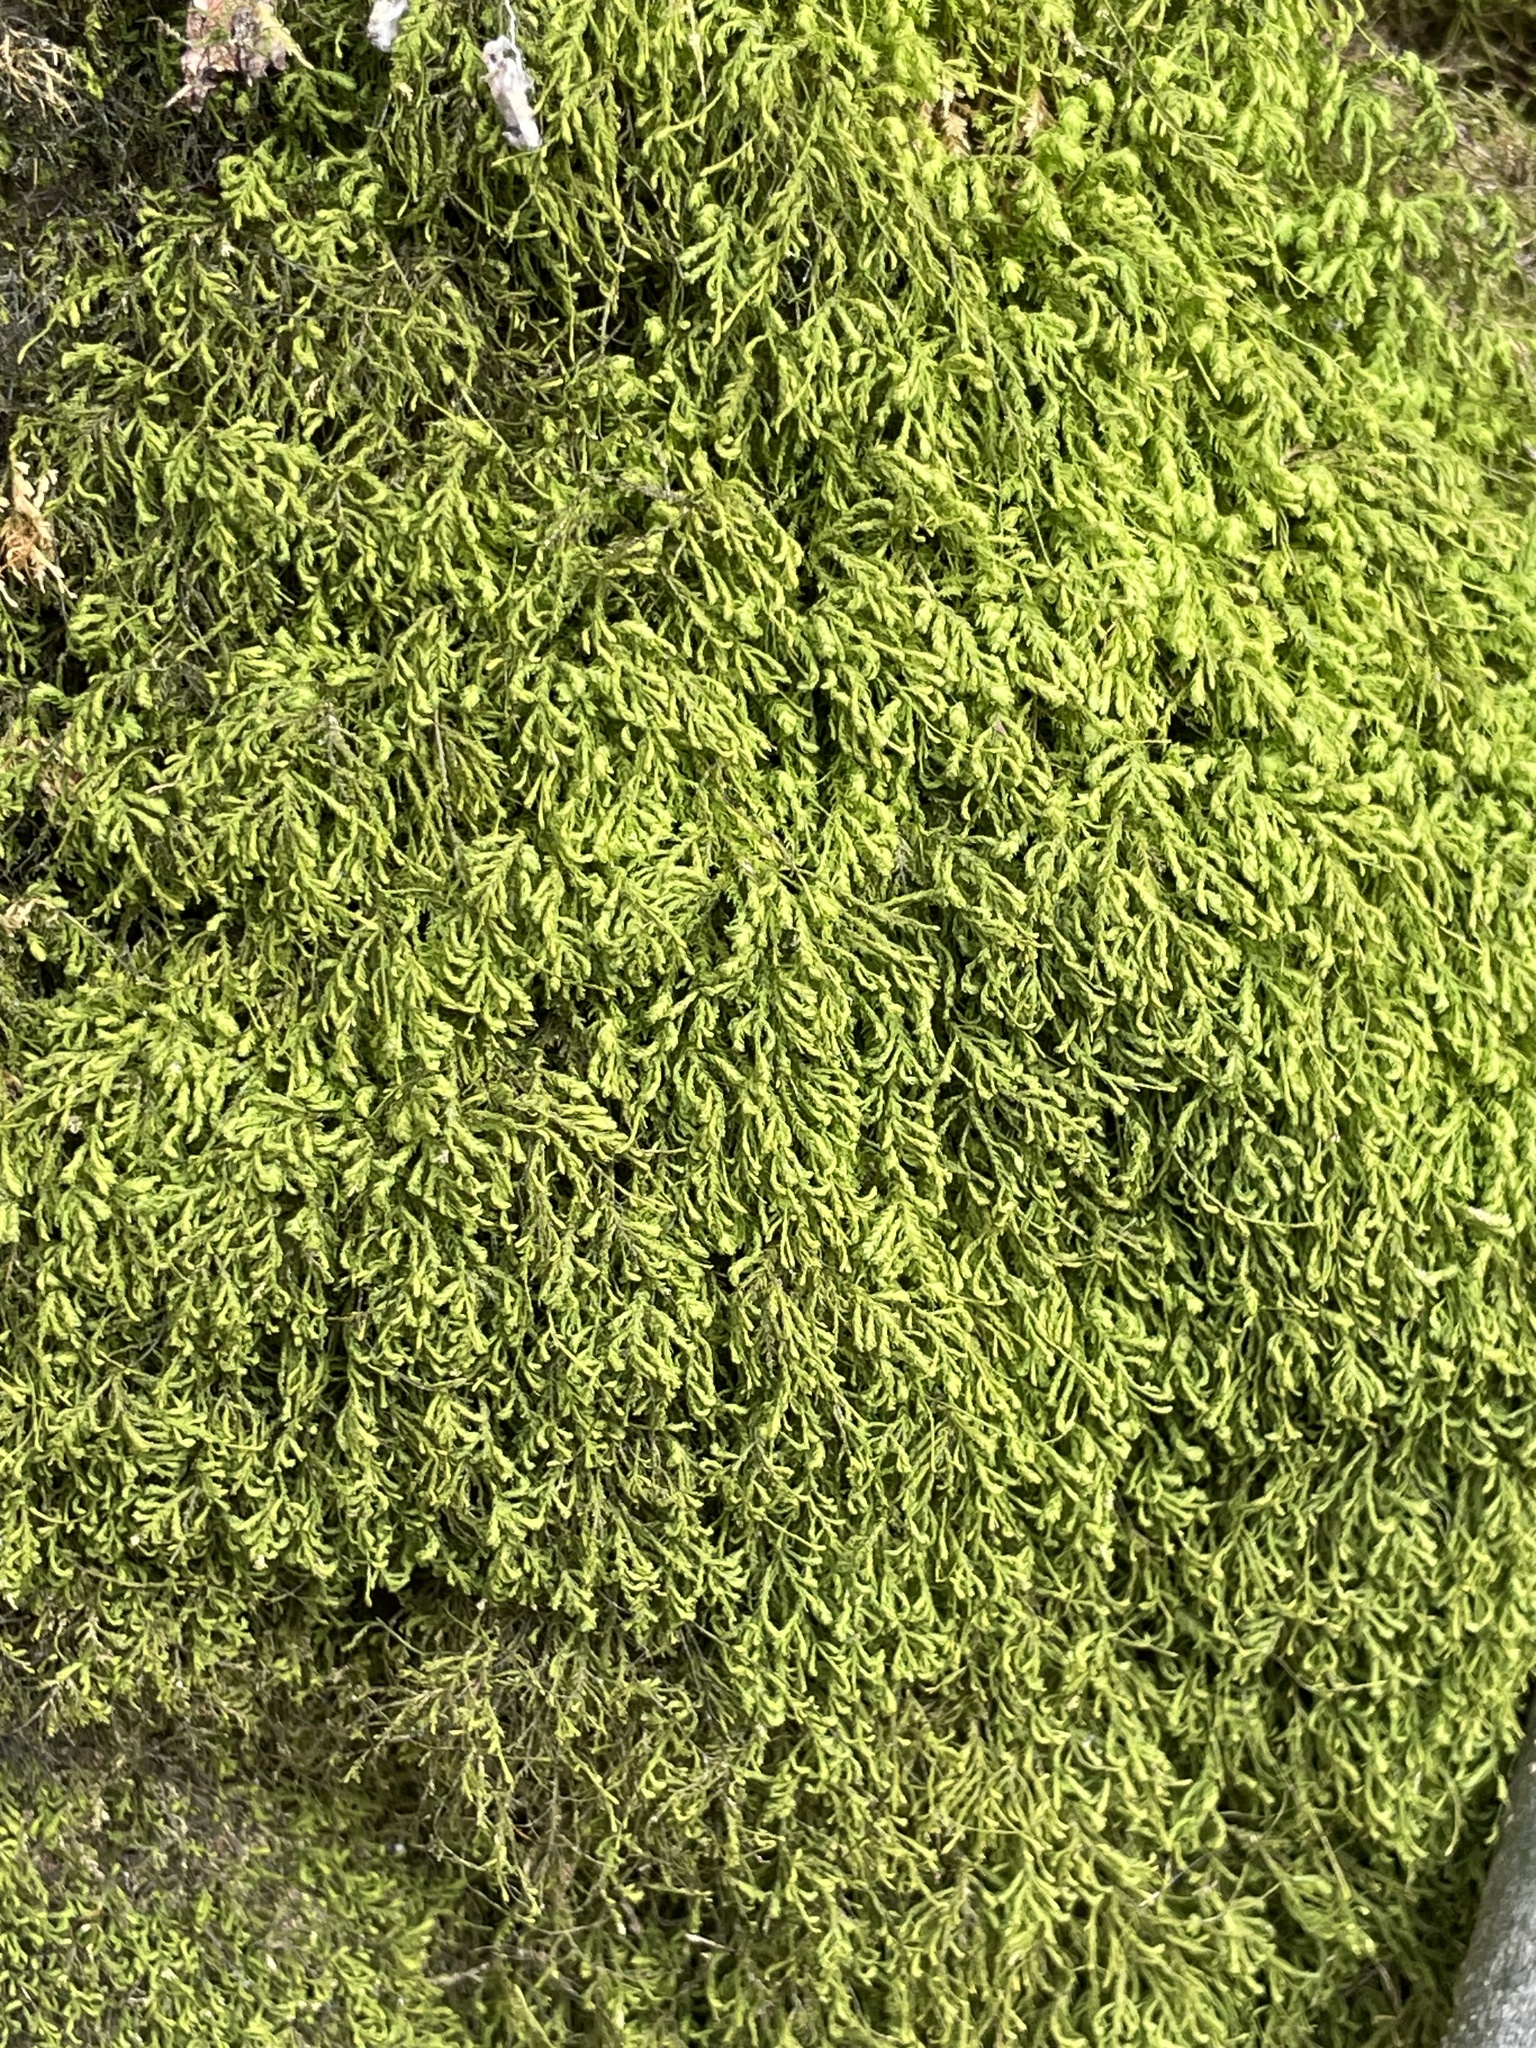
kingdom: Plantae
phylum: Bryophyta
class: Bryopsida
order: Hypnales
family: Neckeraceae
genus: Pseudanomodon
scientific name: Pseudanomodon attenuatus
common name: Tree-skirt moss
